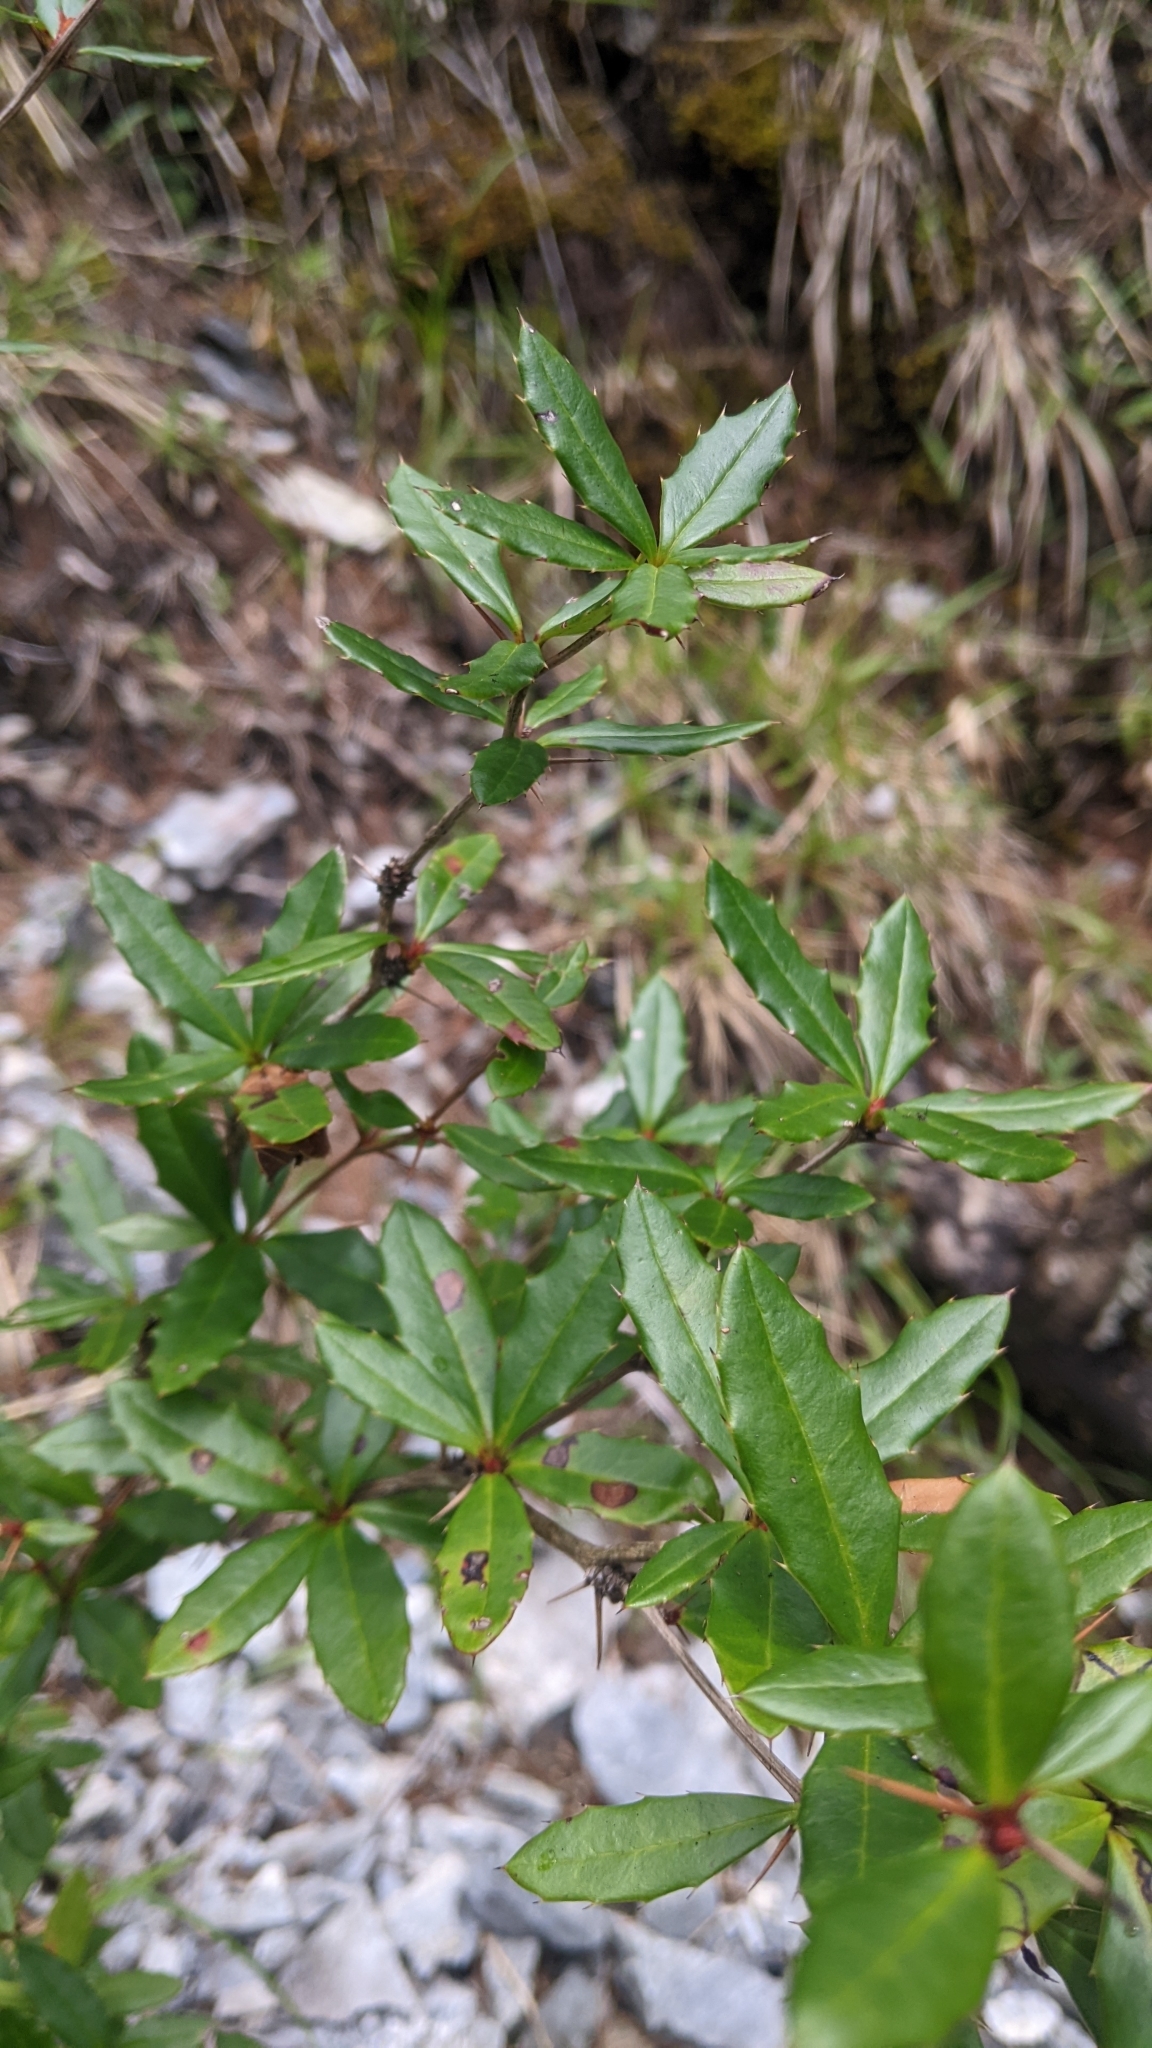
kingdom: Plantae
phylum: Tracheophyta
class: Magnoliopsida
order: Ranunculales
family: Berberidaceae
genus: Berberis
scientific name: Berberis tarokoensis
